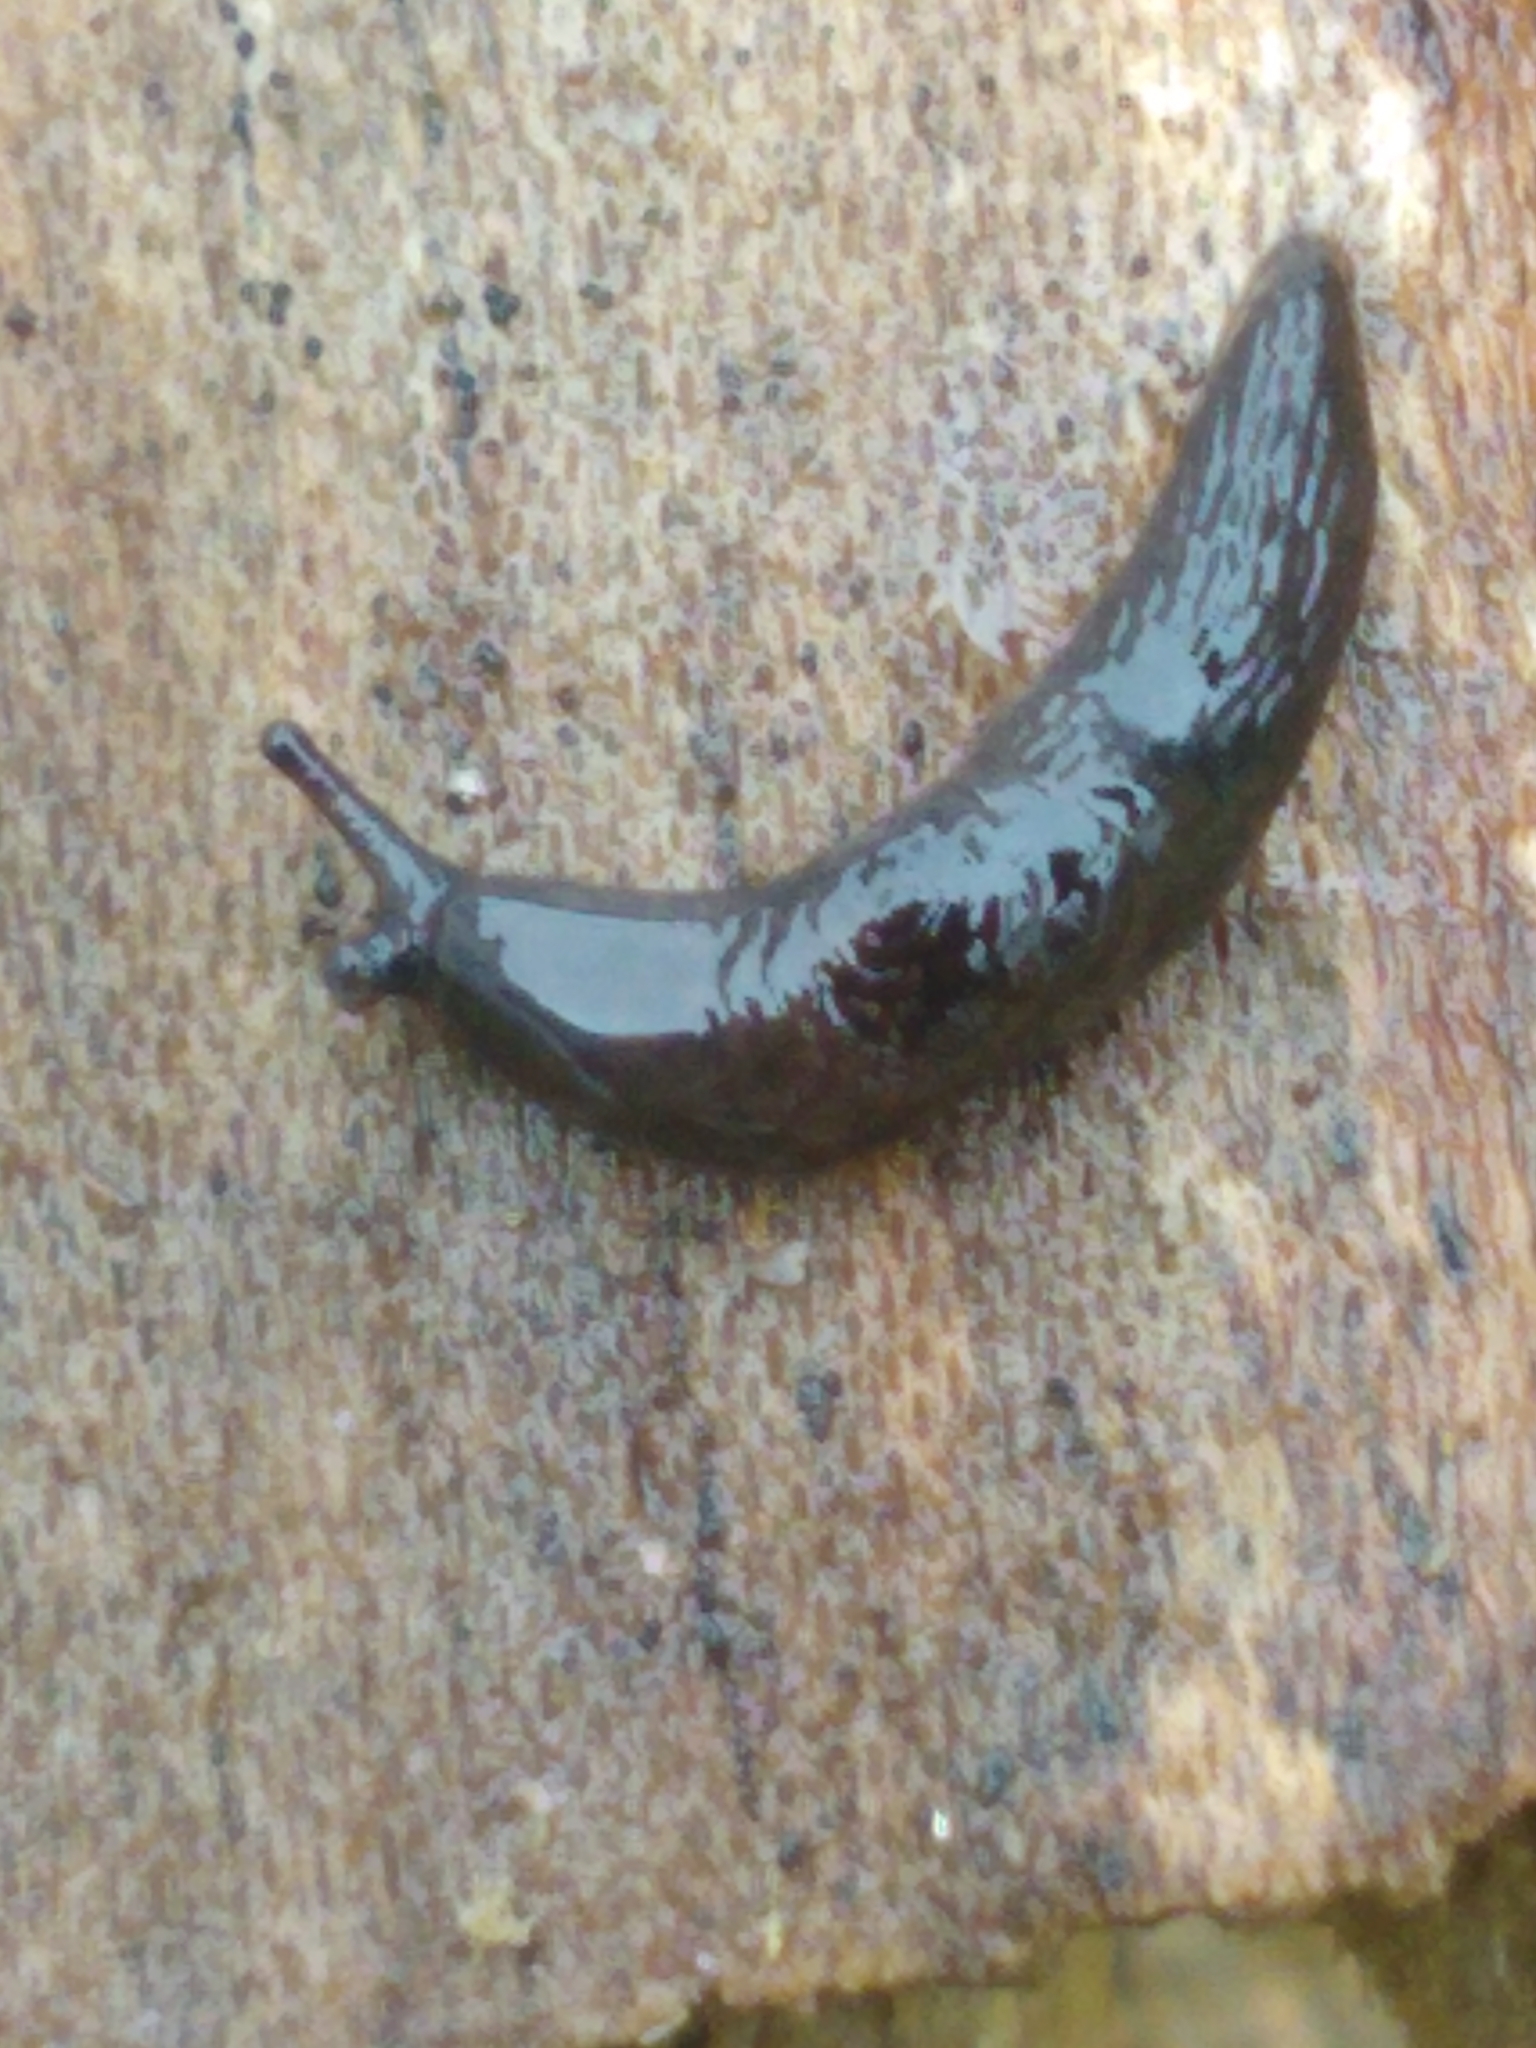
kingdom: Animalia
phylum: Mollusca
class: Gastropoda
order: Stylommatophora
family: Agriolimacidae
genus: Deroceras
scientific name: Deroceras laeve
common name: Marsh slug
